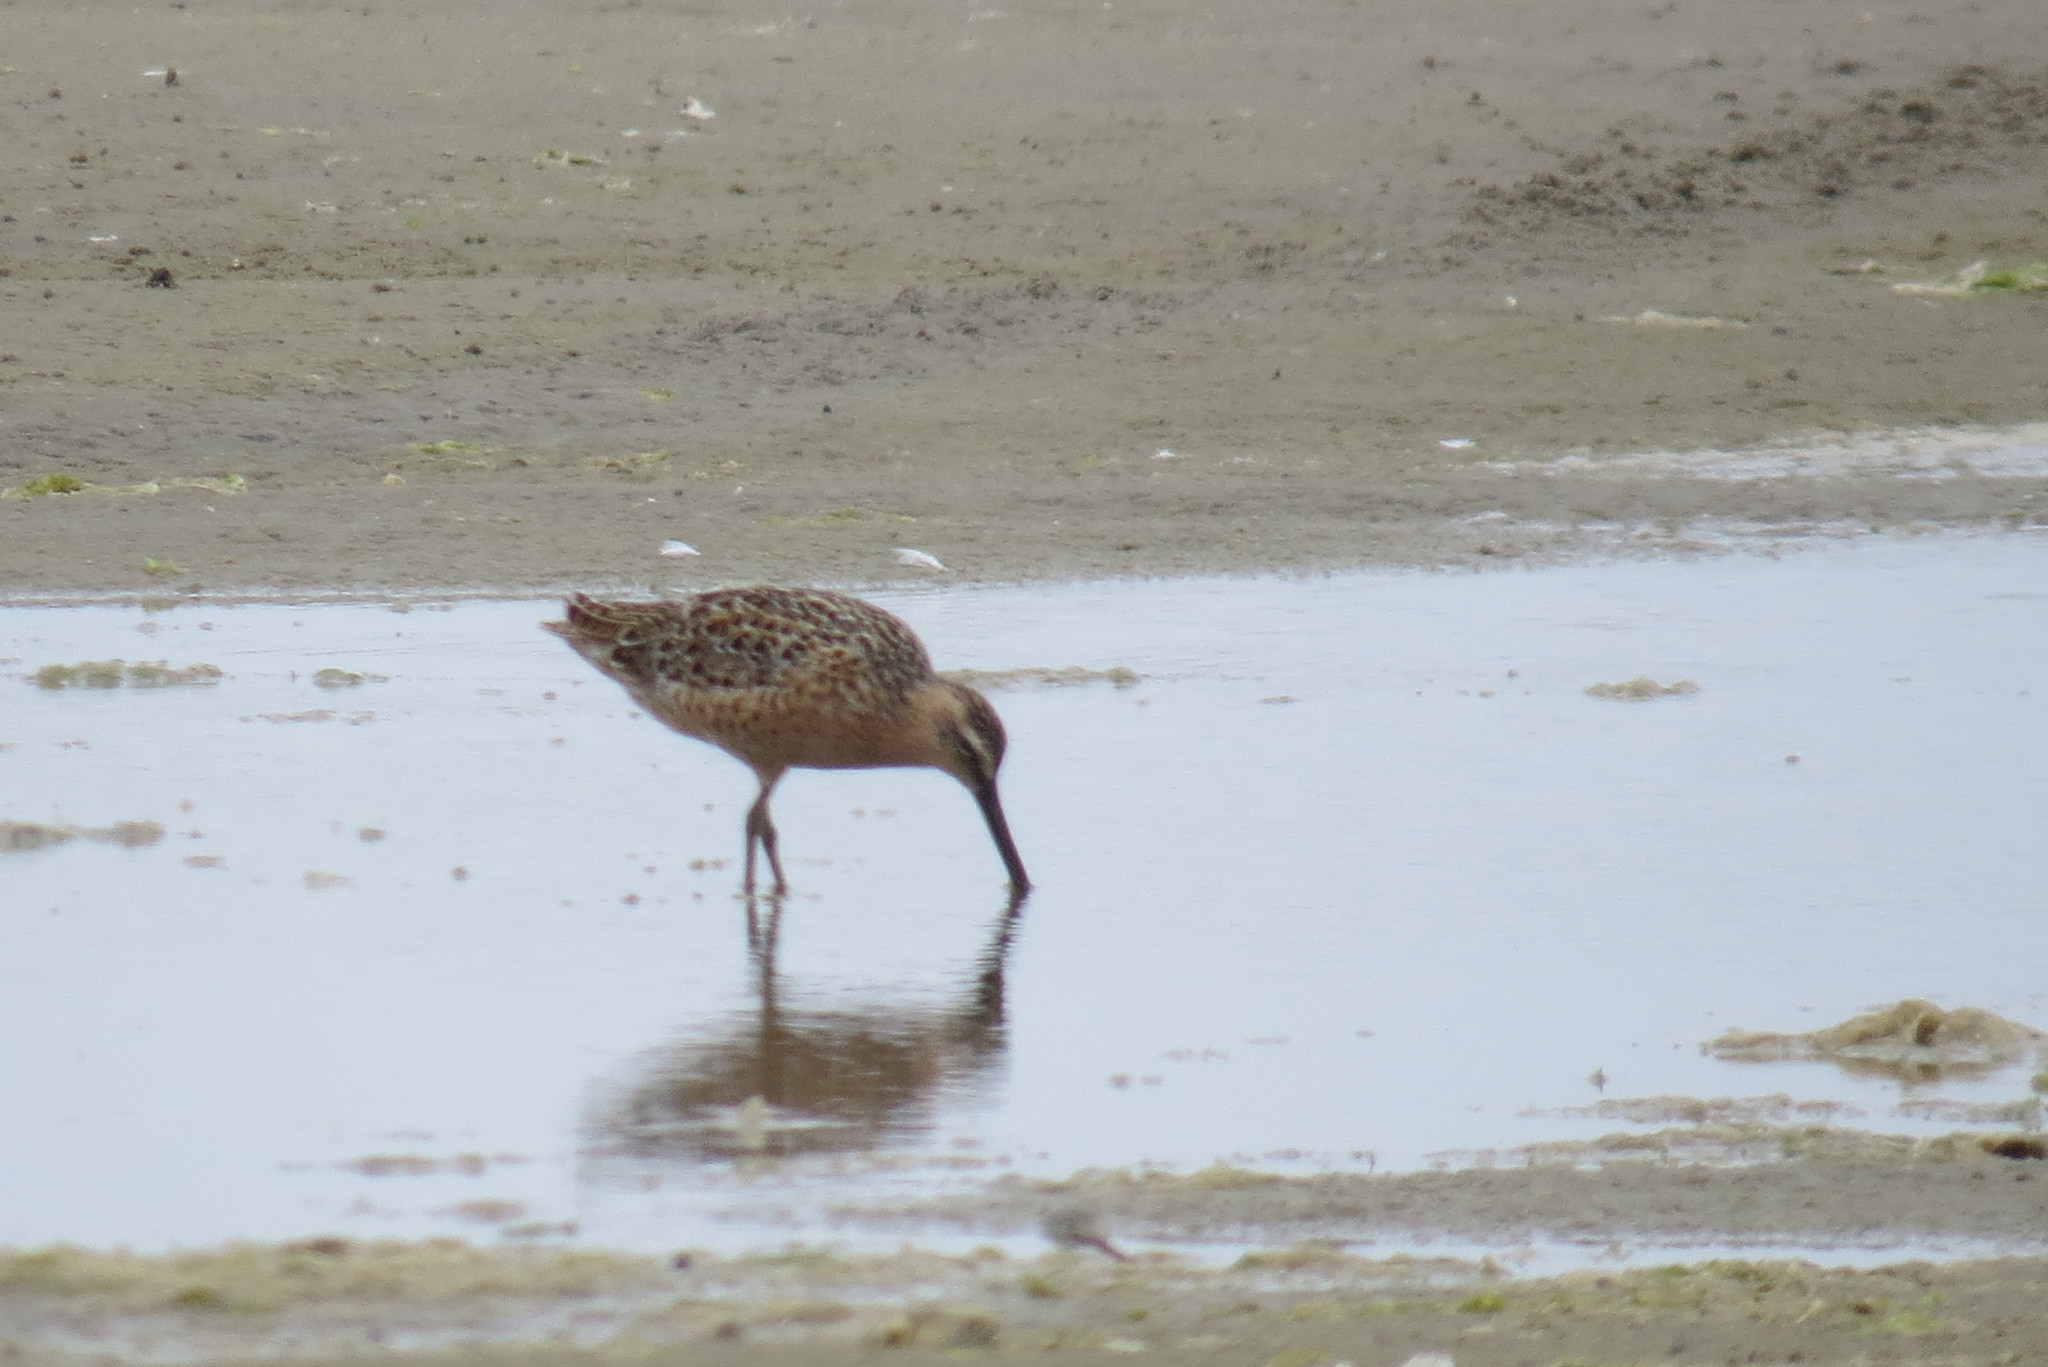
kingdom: Animalia
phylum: Chordata
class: Aves
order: Charadriiformes
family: Scolopacidae
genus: Limnodromus
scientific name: Limnodromus griseus
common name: Short-billed dowitcher
